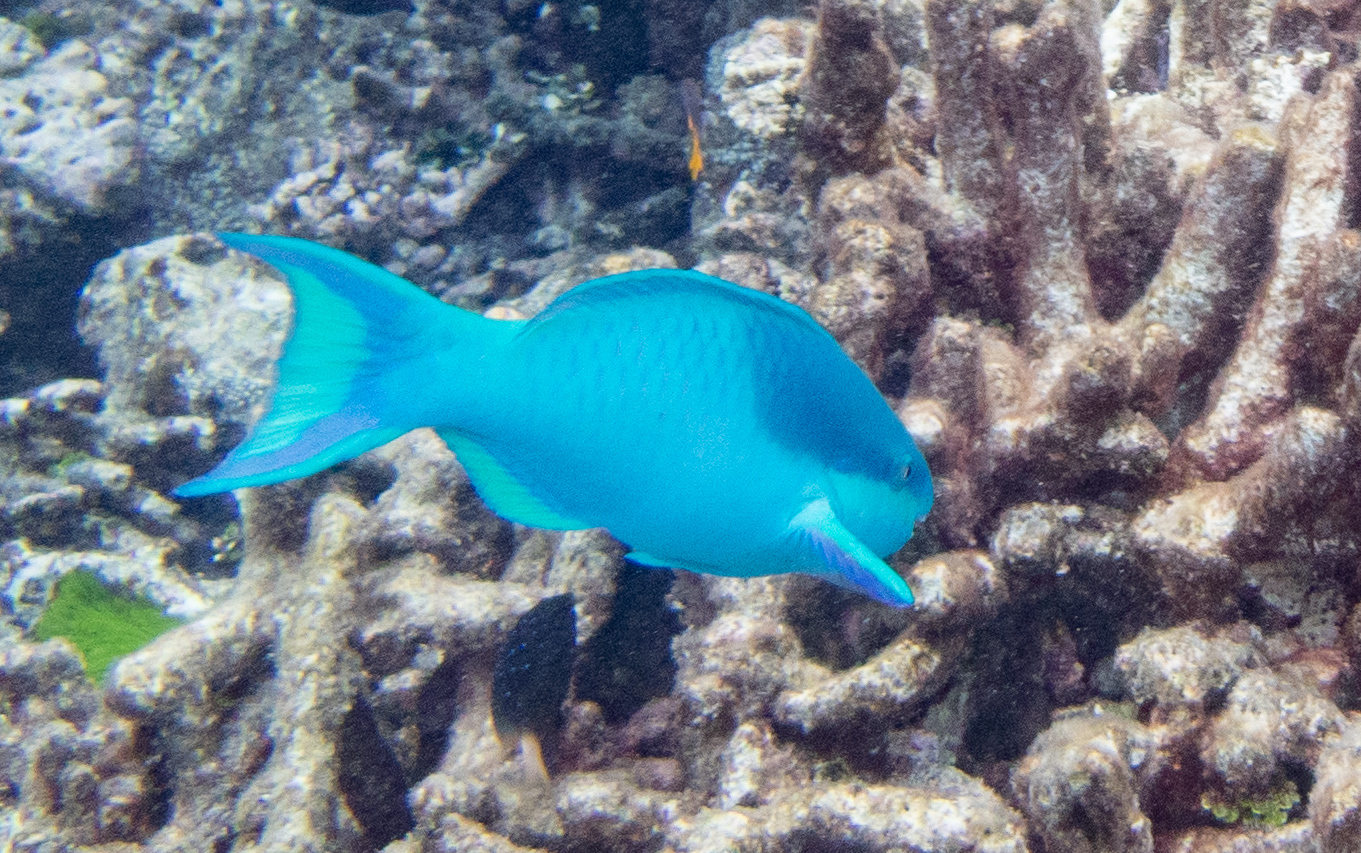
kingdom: Animalia
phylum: Chordata
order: Perciformes
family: Scaridae
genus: Scarus
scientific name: Scarus oviceps
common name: Blue parrotfish
